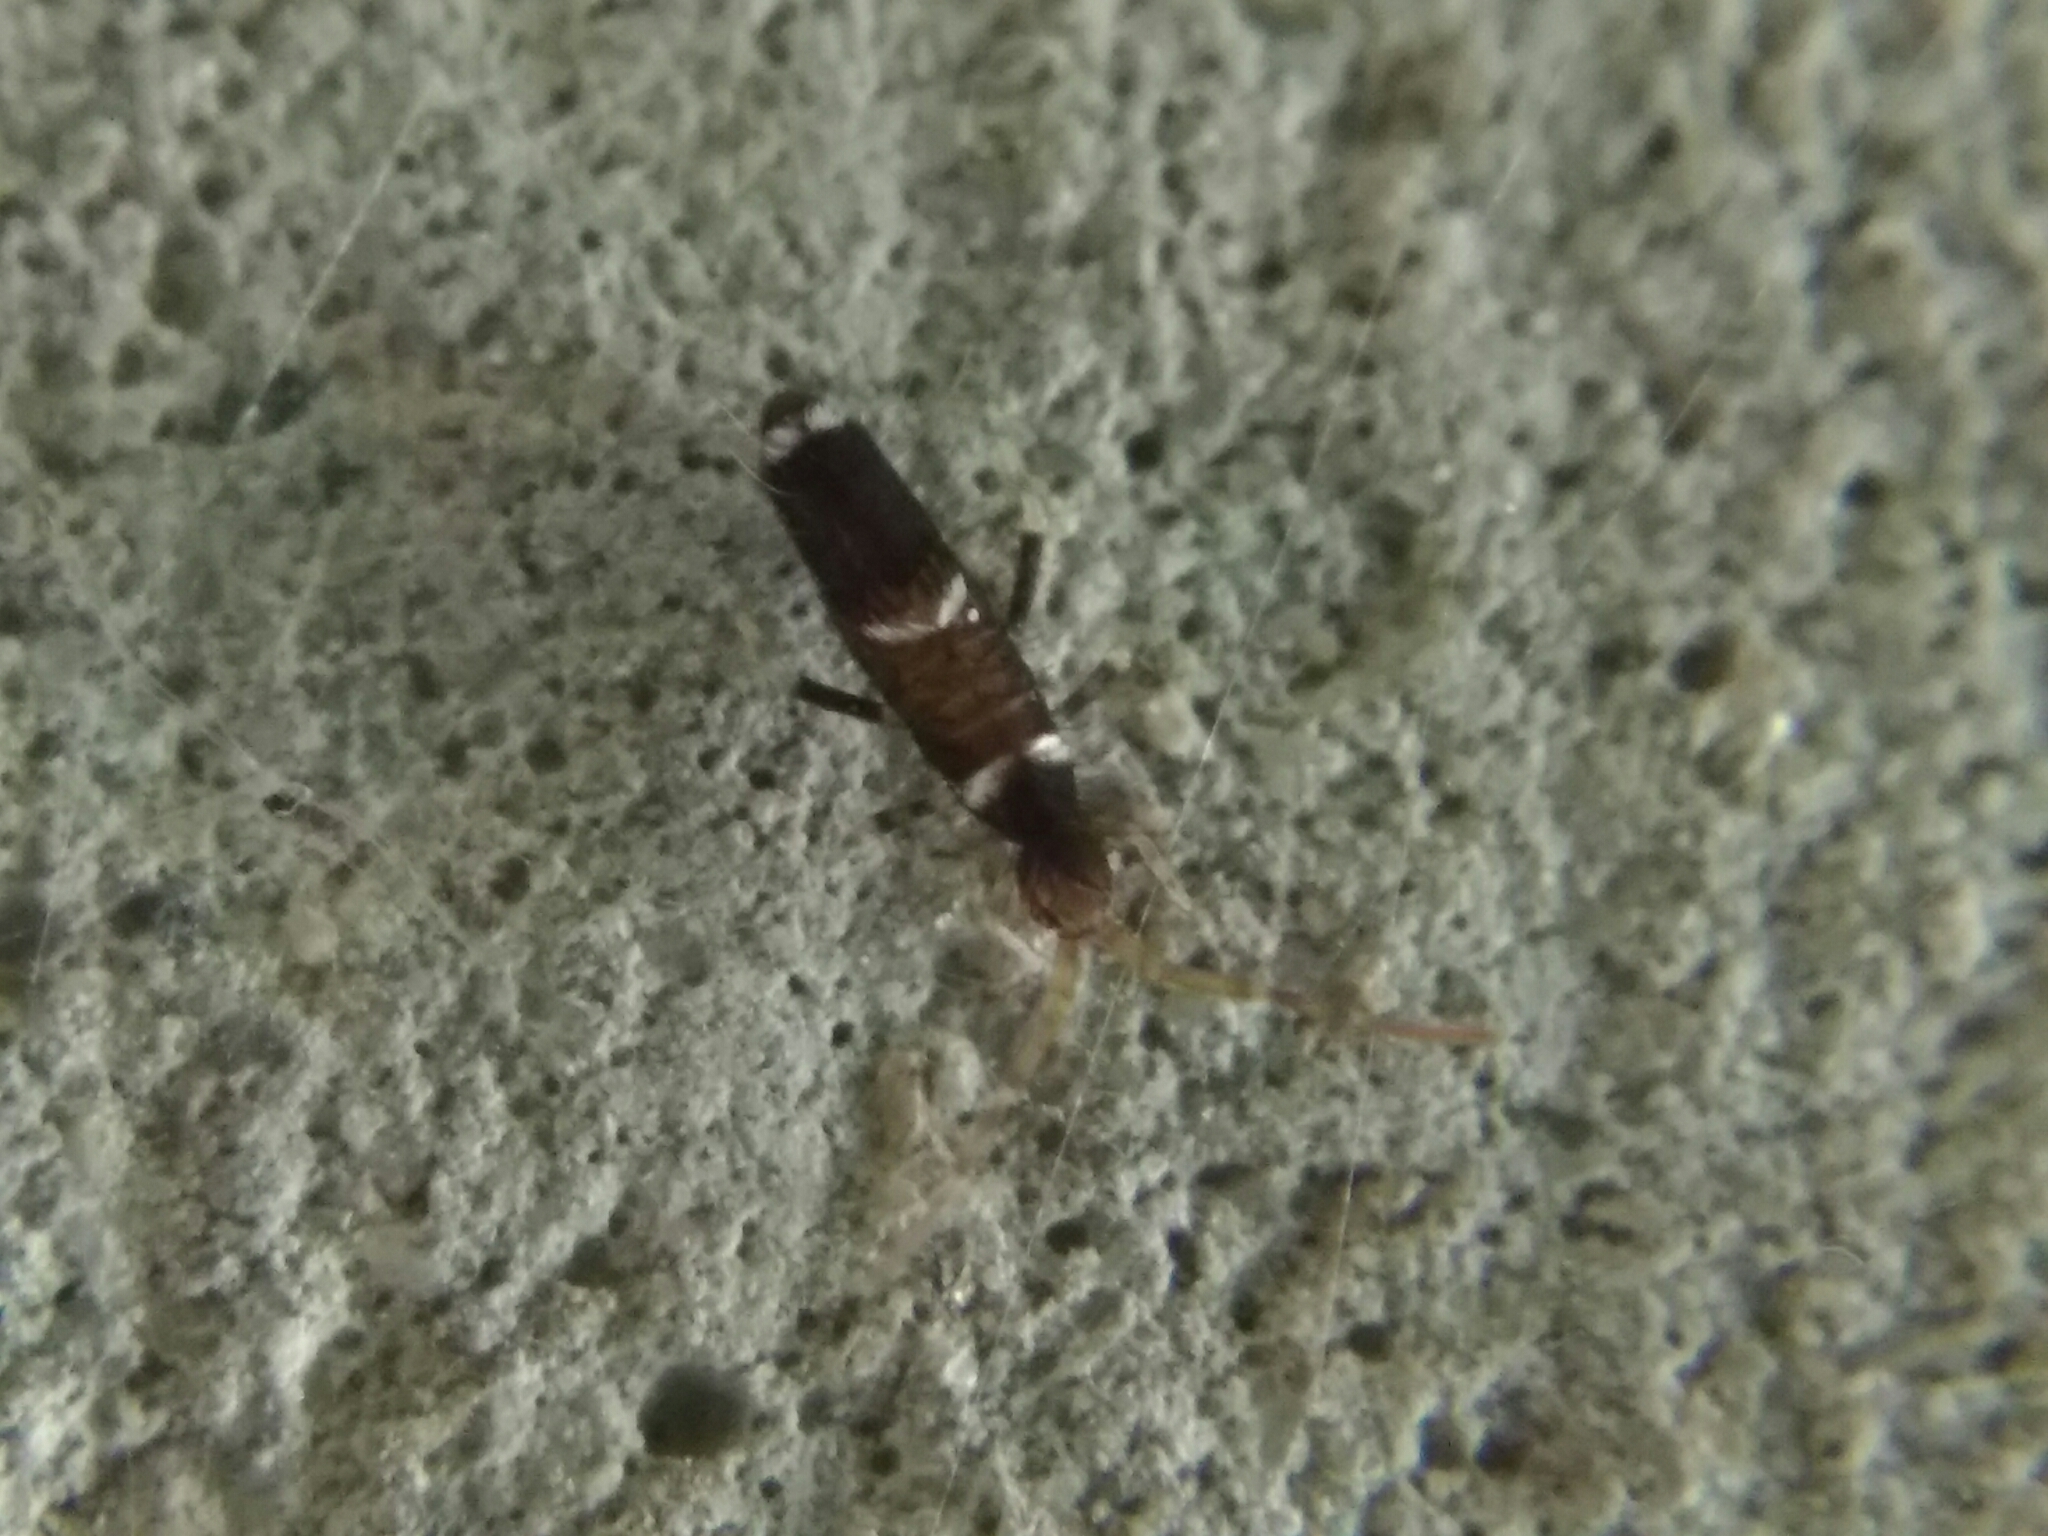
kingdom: Animalia
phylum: Arthropoda
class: Collembola
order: Entomobryomorpha
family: Entomobryidae
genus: Entomobrya
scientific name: Entomobrya dorsalis
